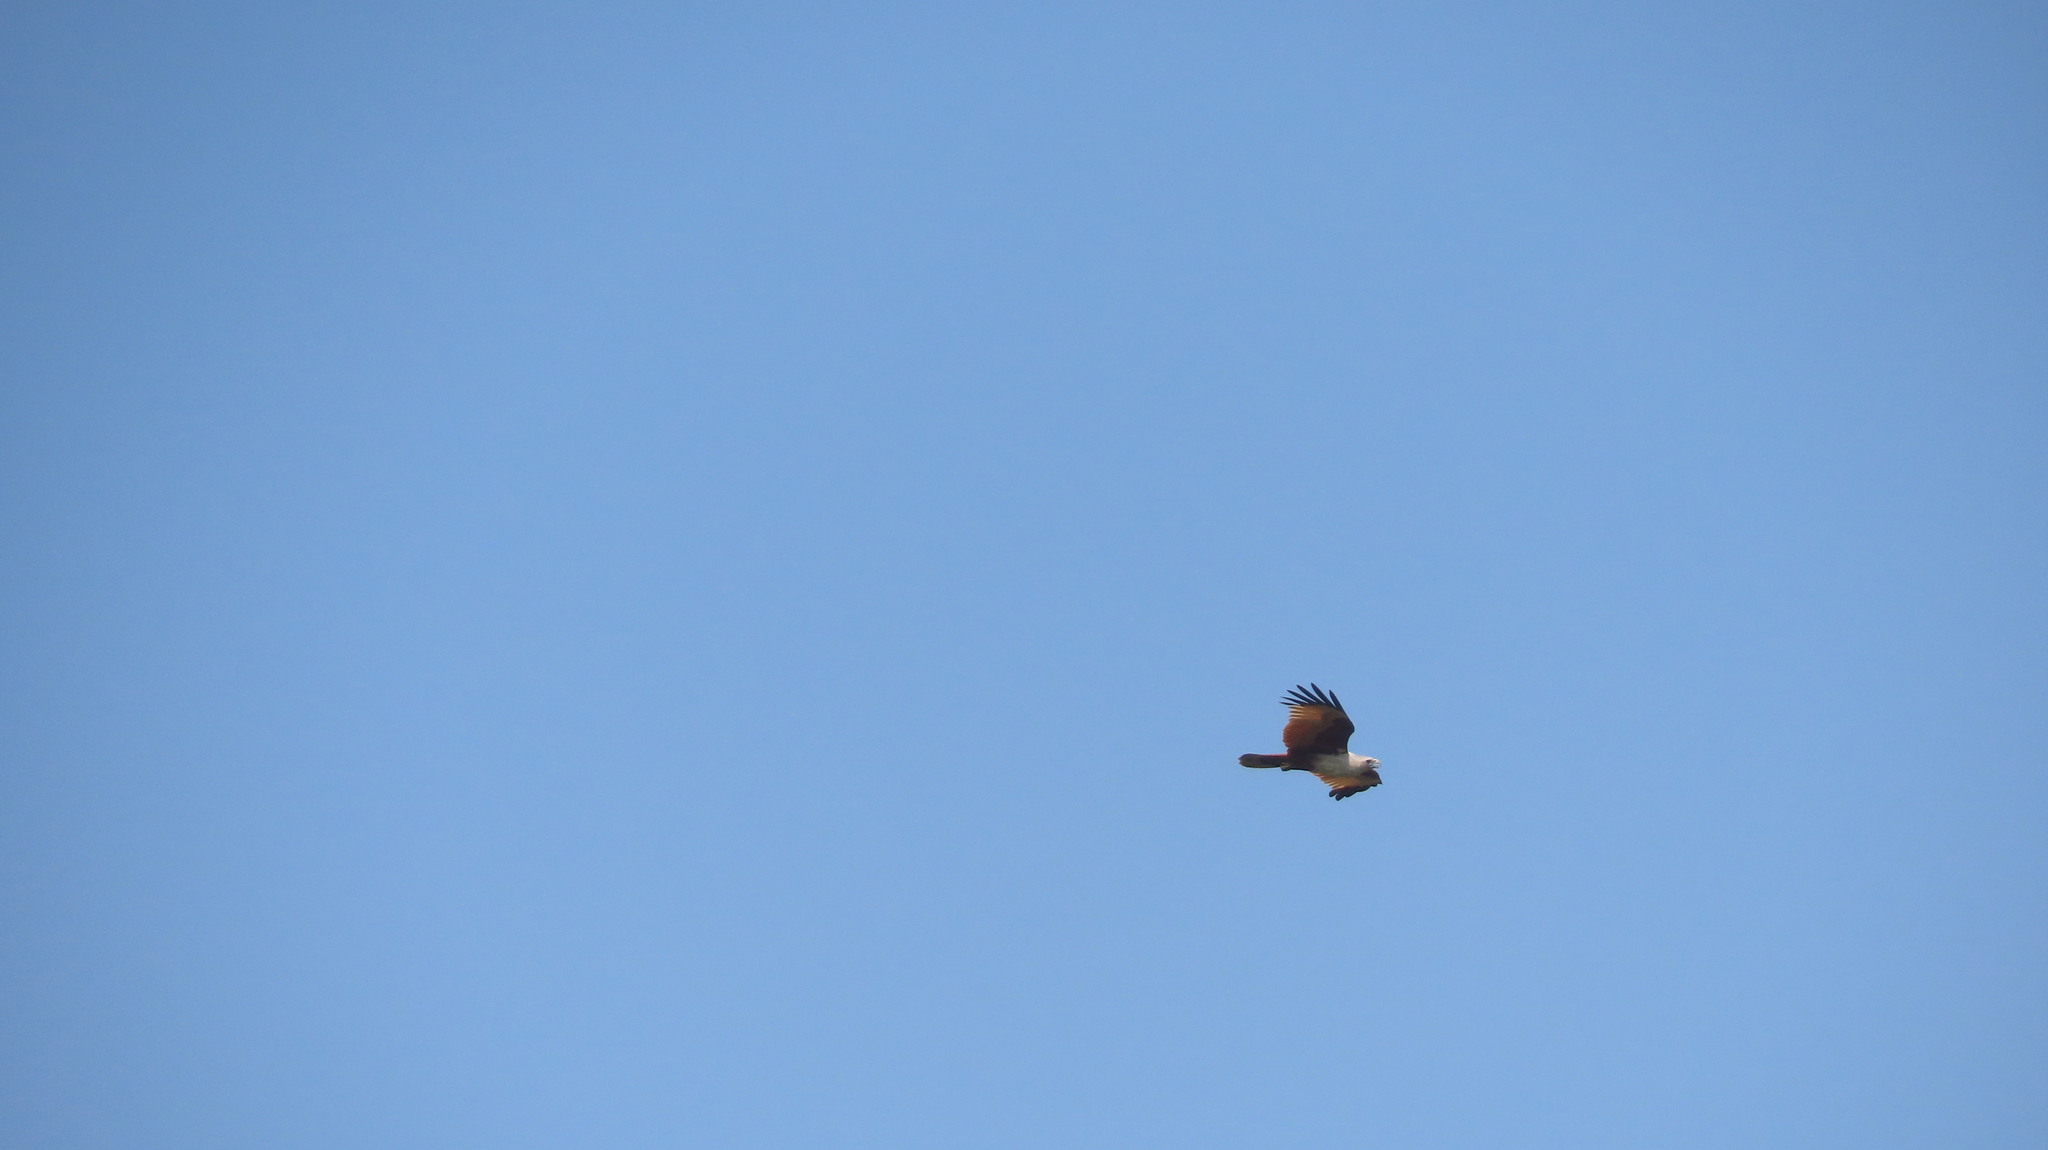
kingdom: Animalia
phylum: Chordata
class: Aves
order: Accipitriformes
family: Accipitridae
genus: Haliastur
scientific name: Haliastur indus
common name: Brahminy kite
